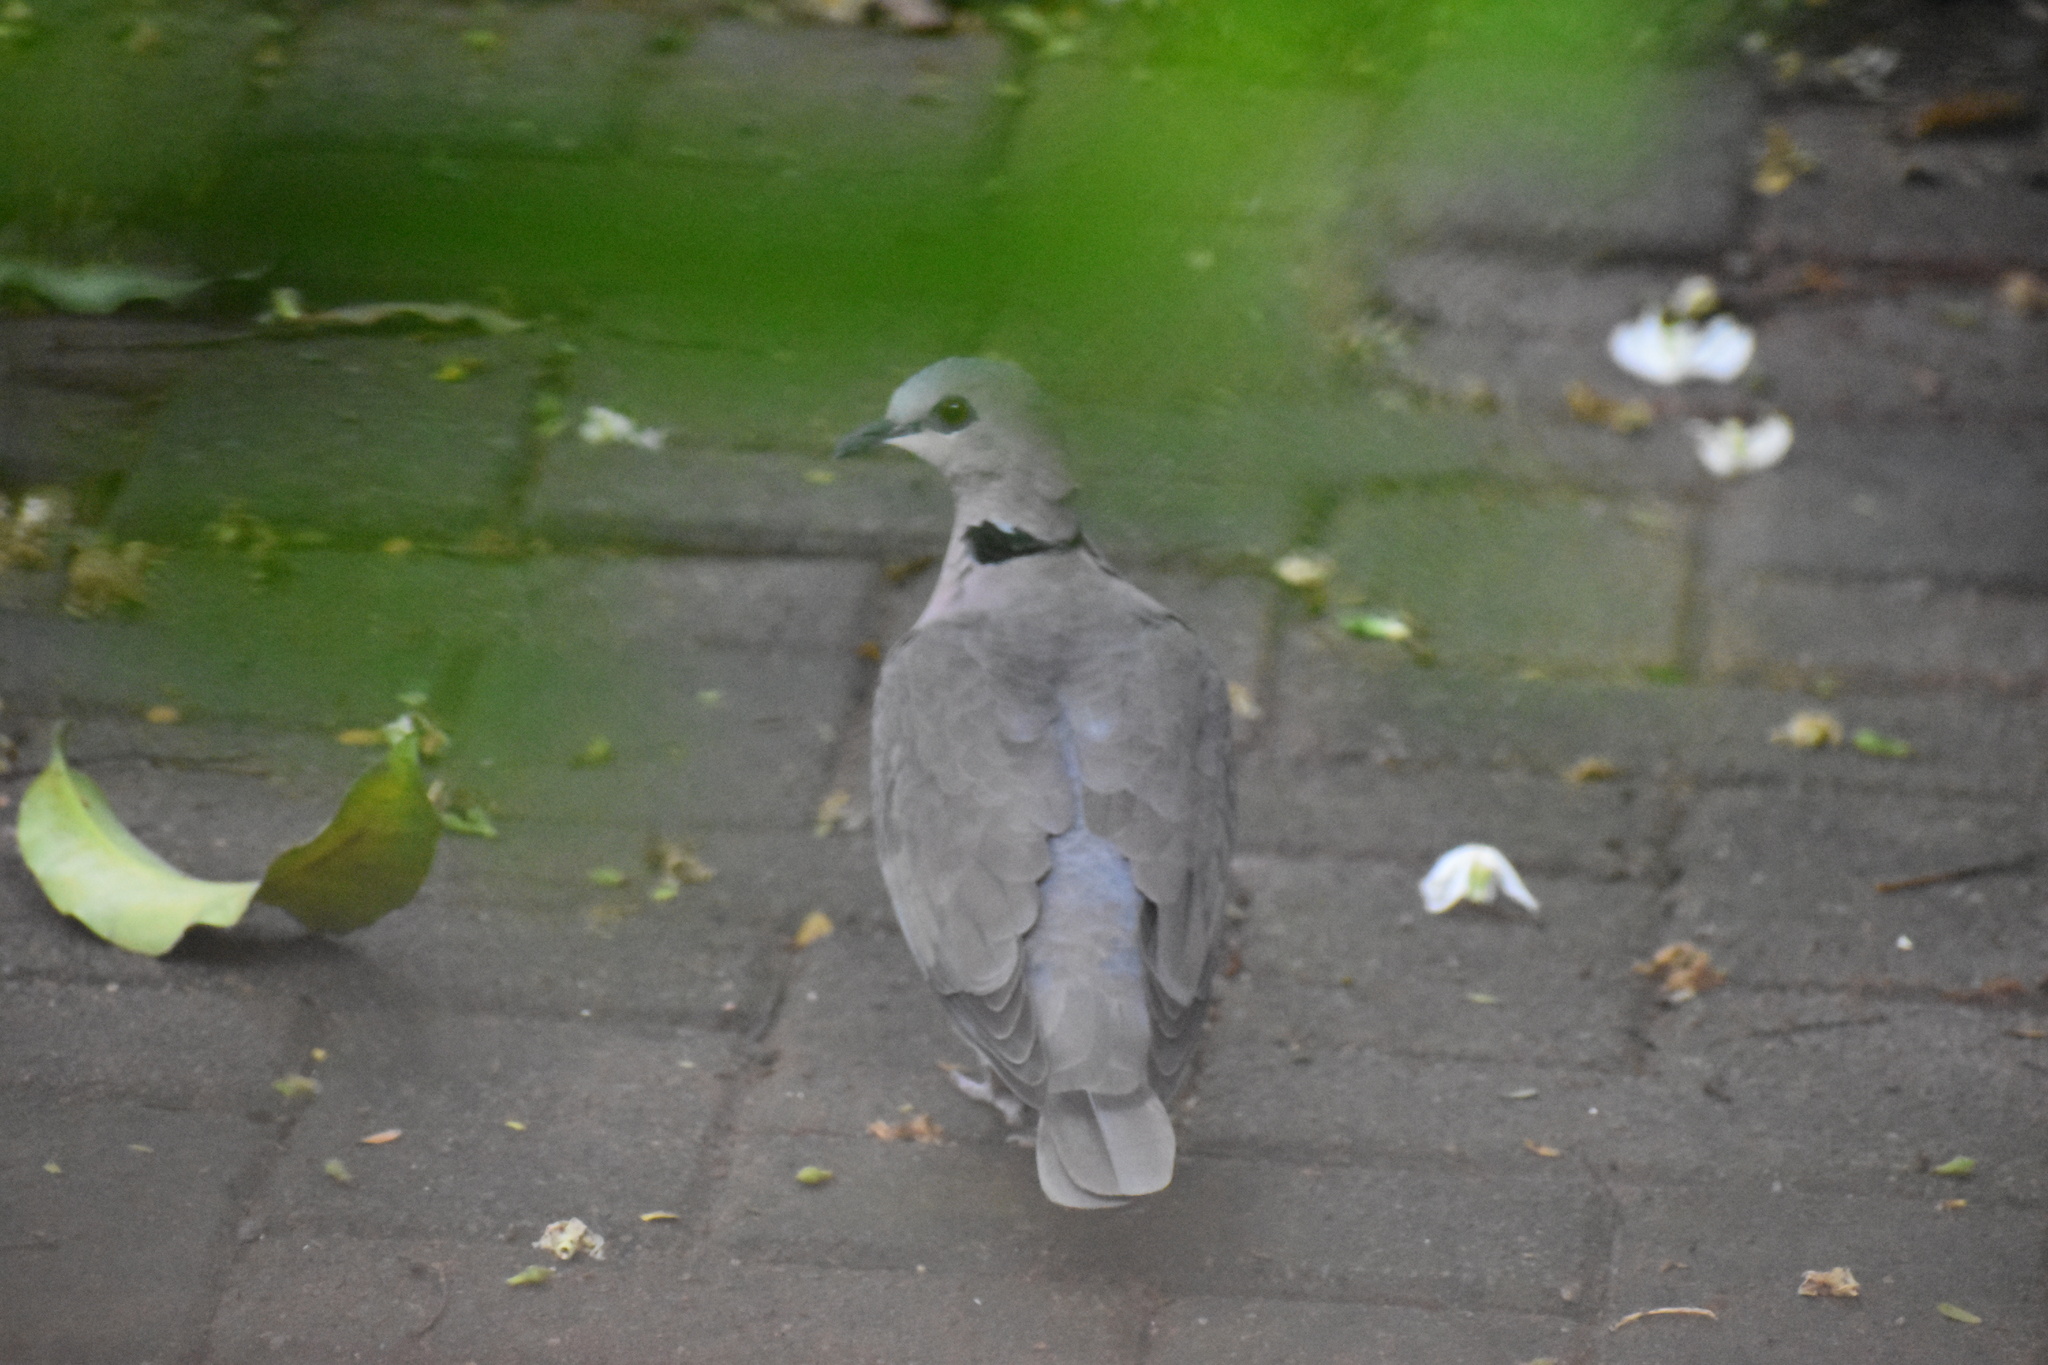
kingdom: Animalia
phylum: Chordata
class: Aves
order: Columbiformes
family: Columbidae
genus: Streptopelia
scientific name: Streptopelia semitorquata
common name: Red-eyed dove
